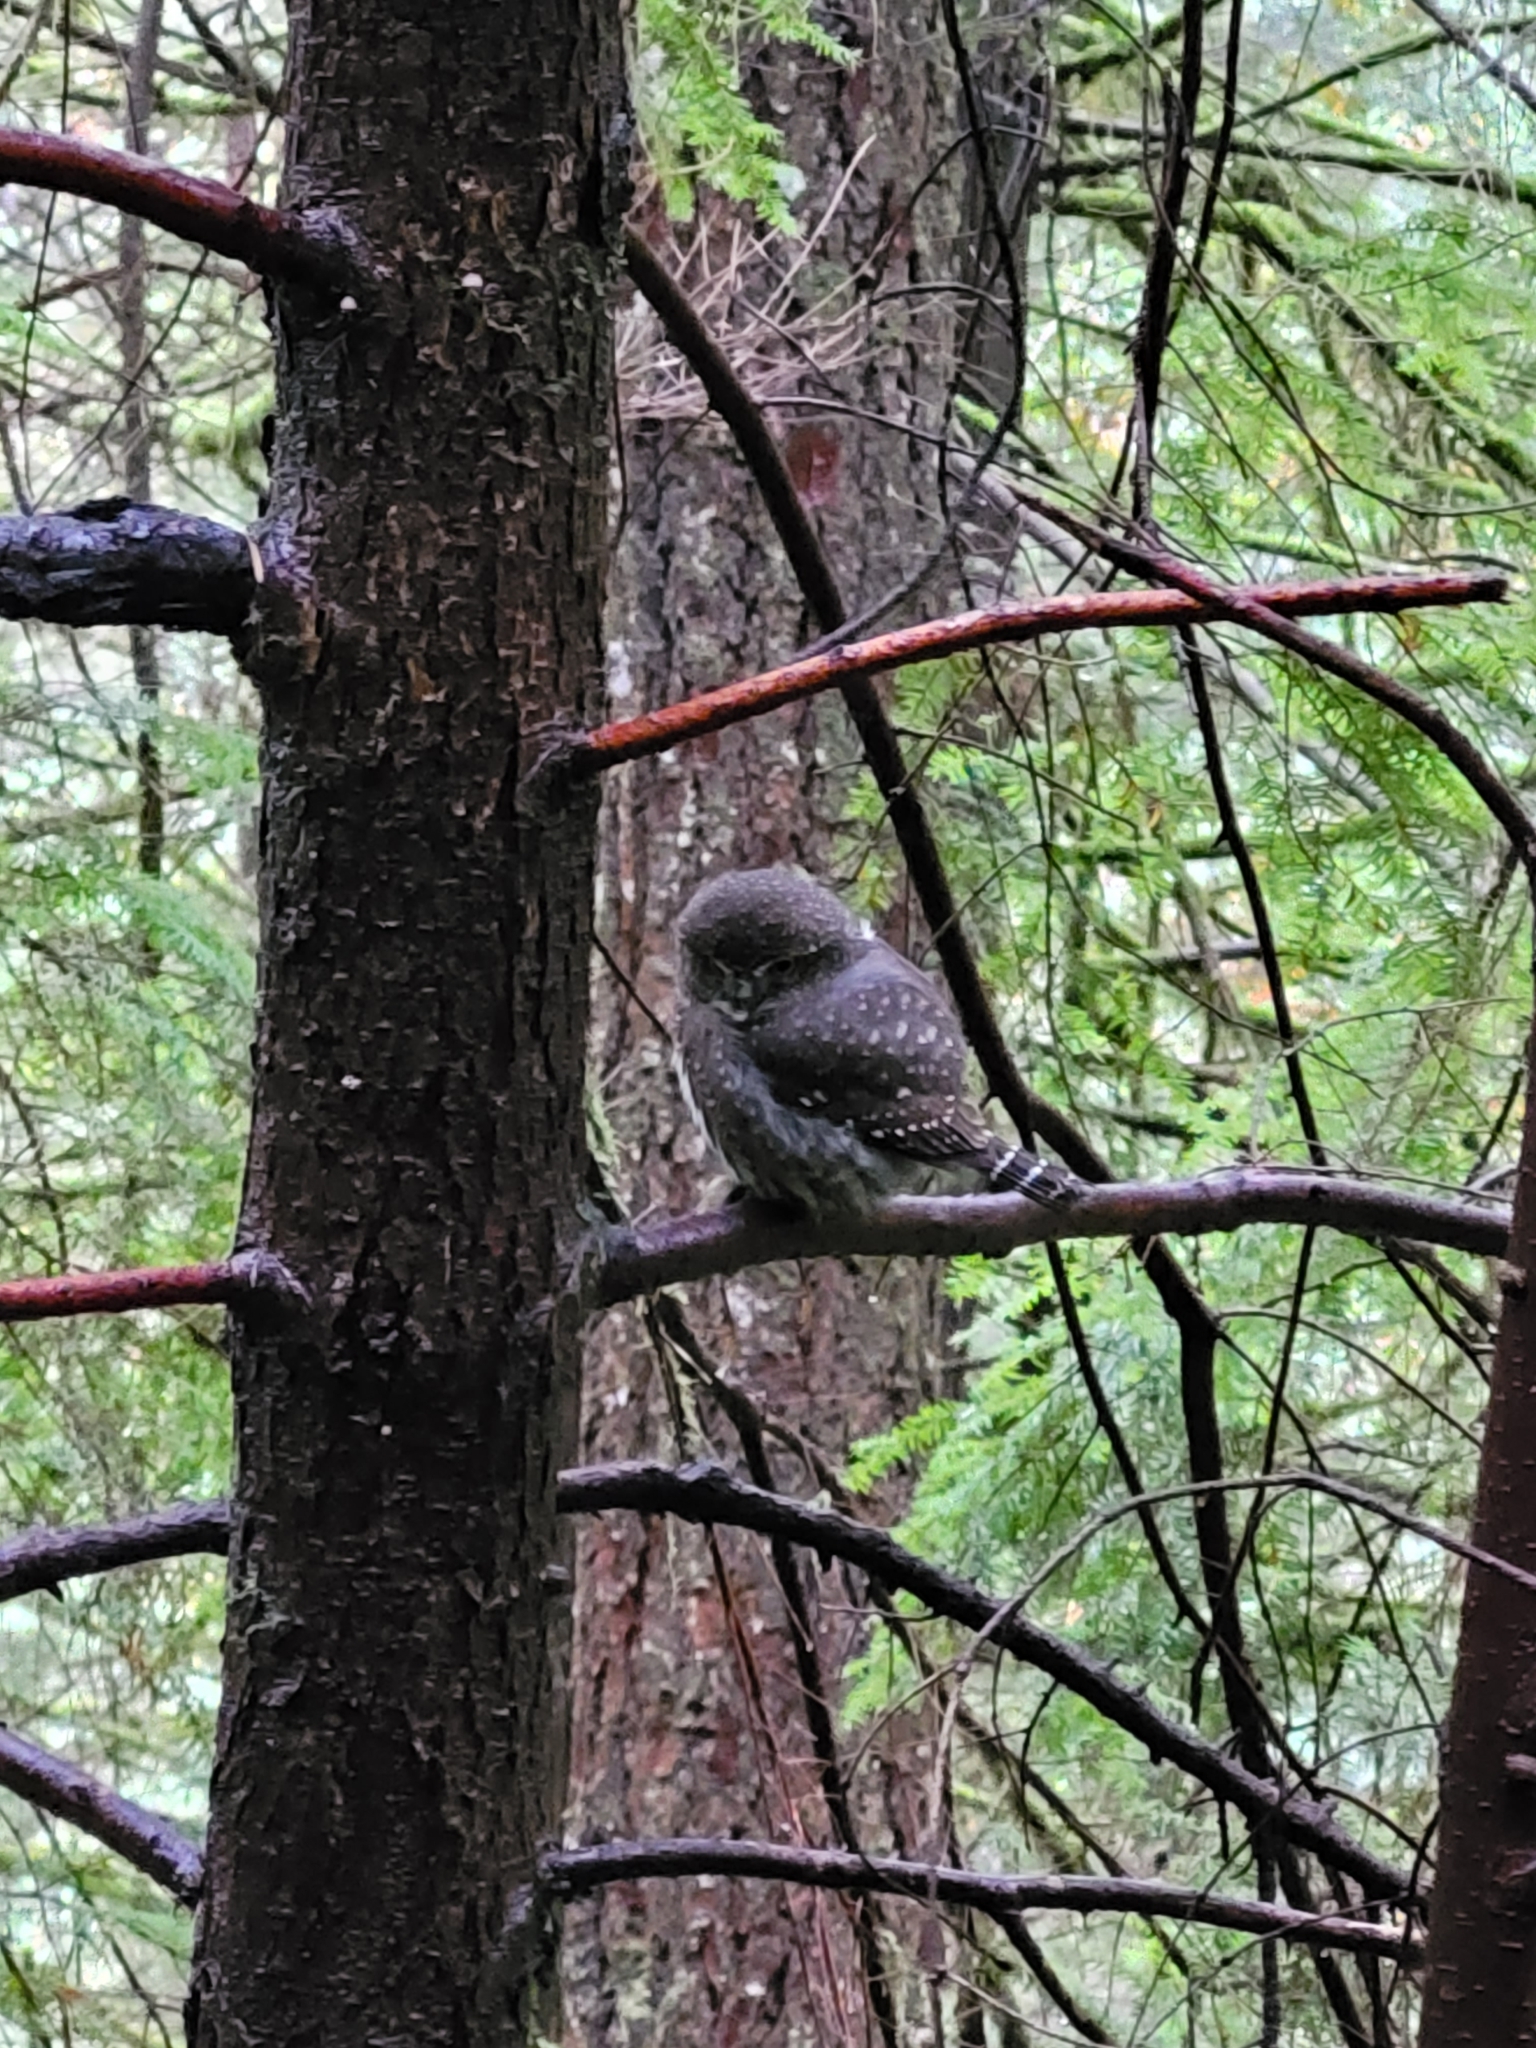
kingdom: Animalia
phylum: Chordata
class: Aves
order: Strigiformes
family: Strigidae
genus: Glaucidium
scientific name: Glaucidium gnoma
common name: Northern pygmy-owl
